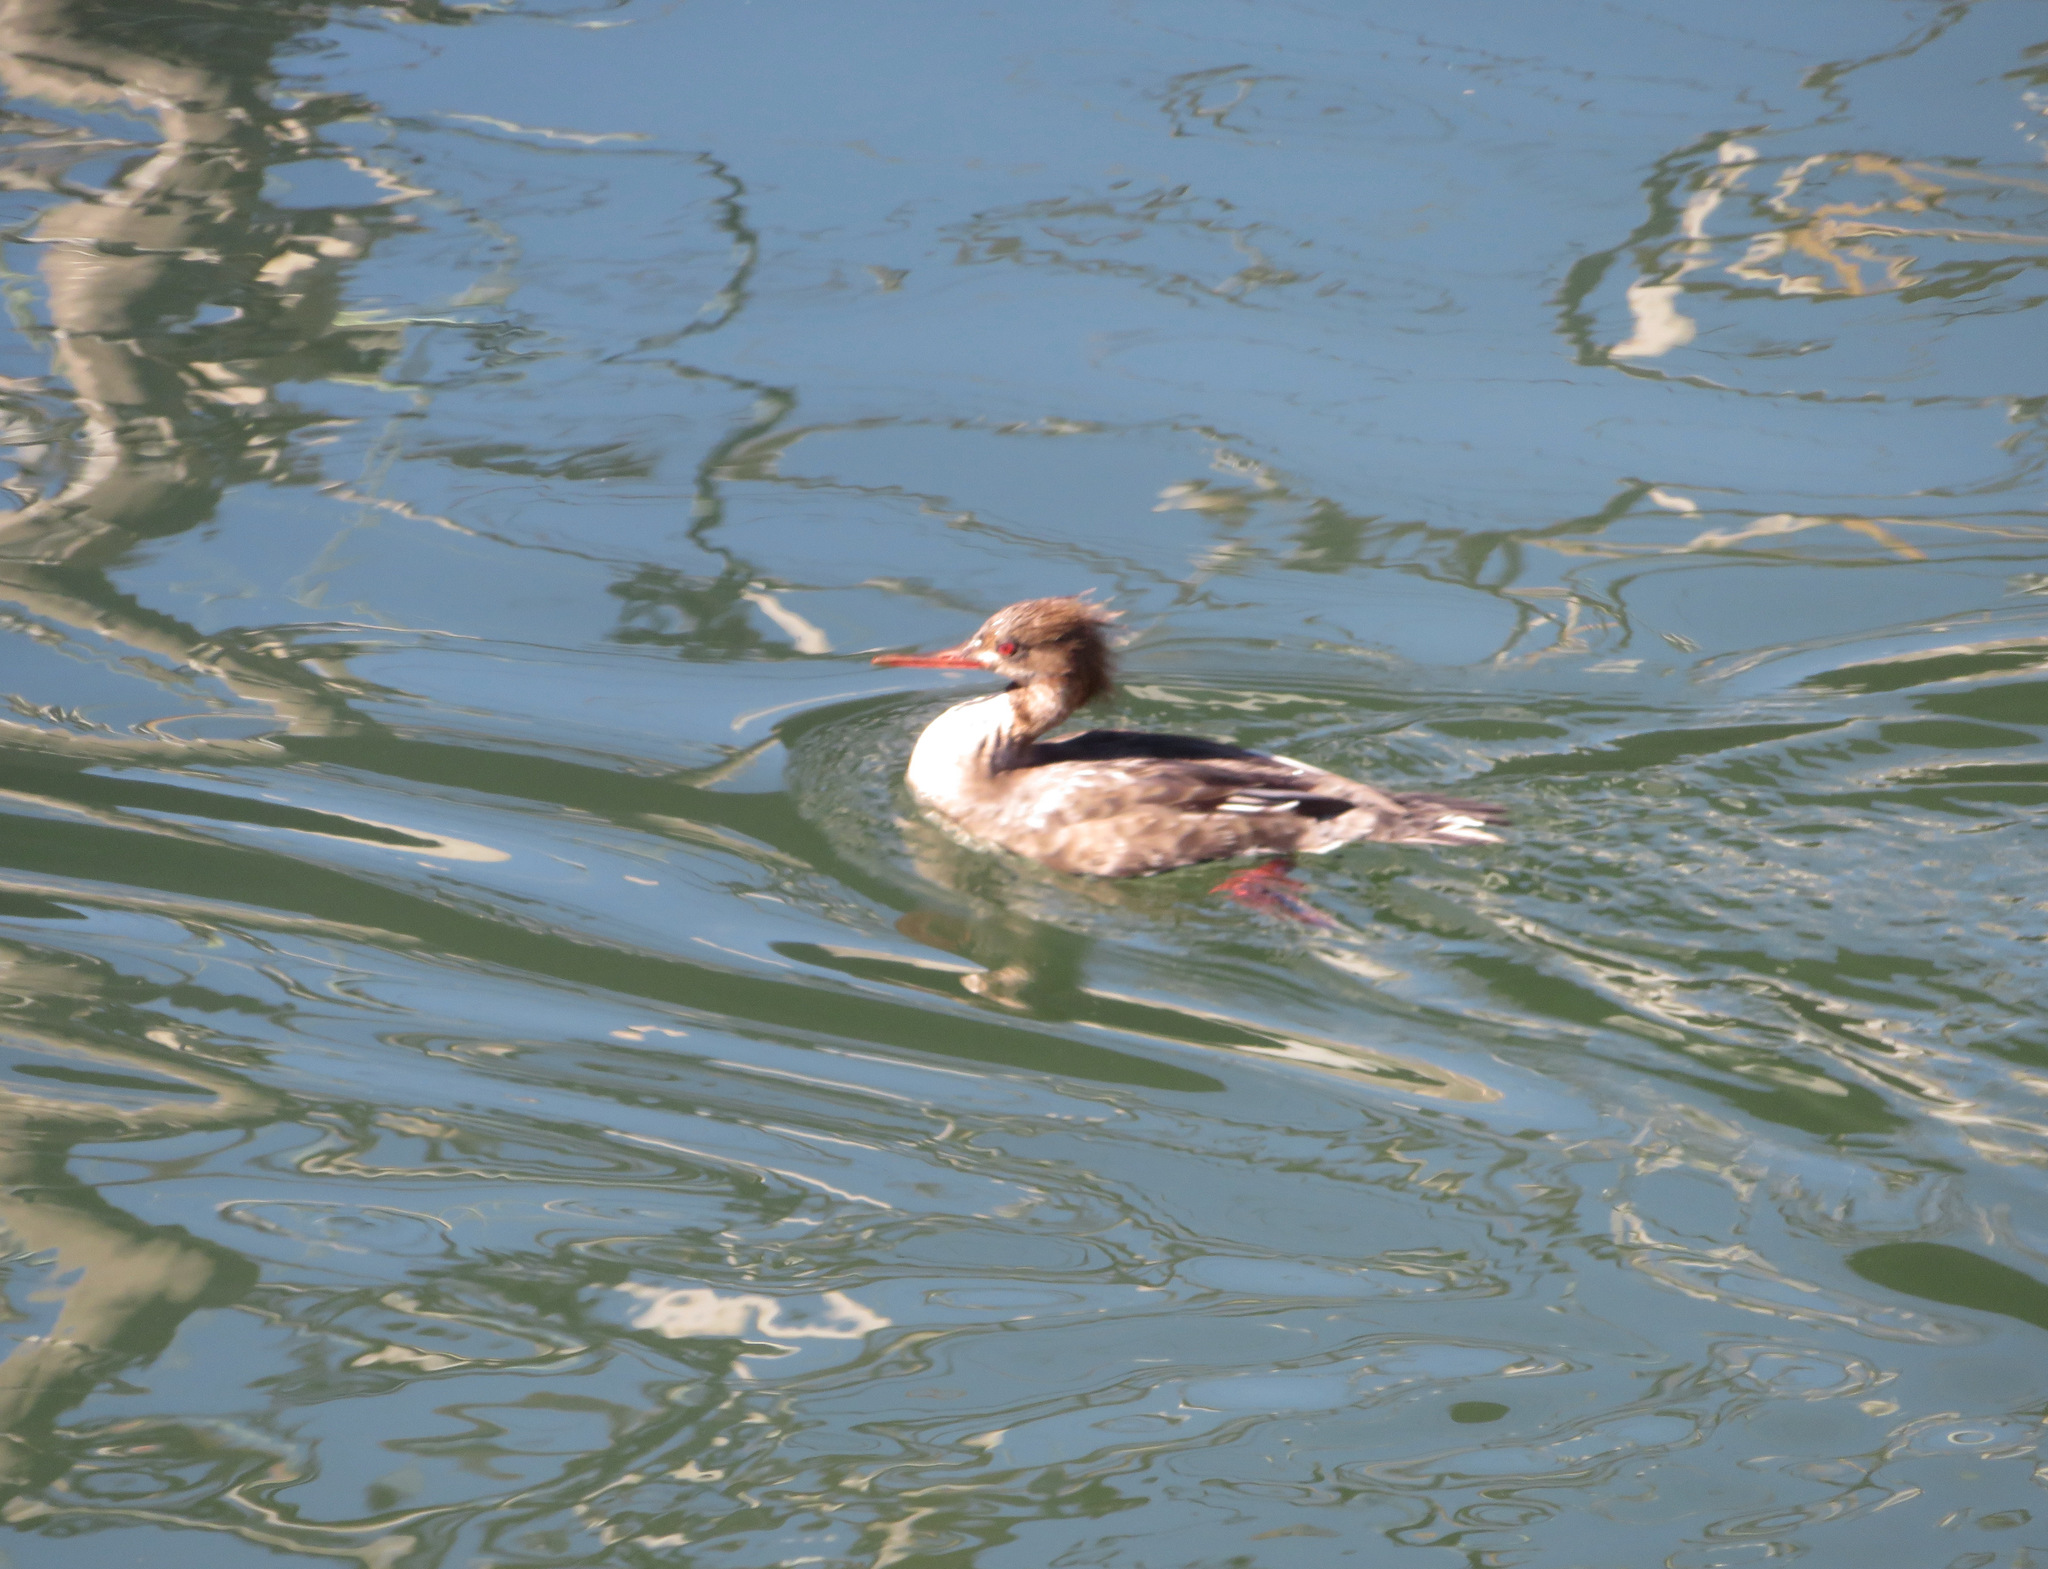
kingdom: Animalia
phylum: Chordata
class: Aves
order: Anseriformes
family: Anatidae
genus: Mergus
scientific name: Mergus serrator
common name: Red-breasted merganser
